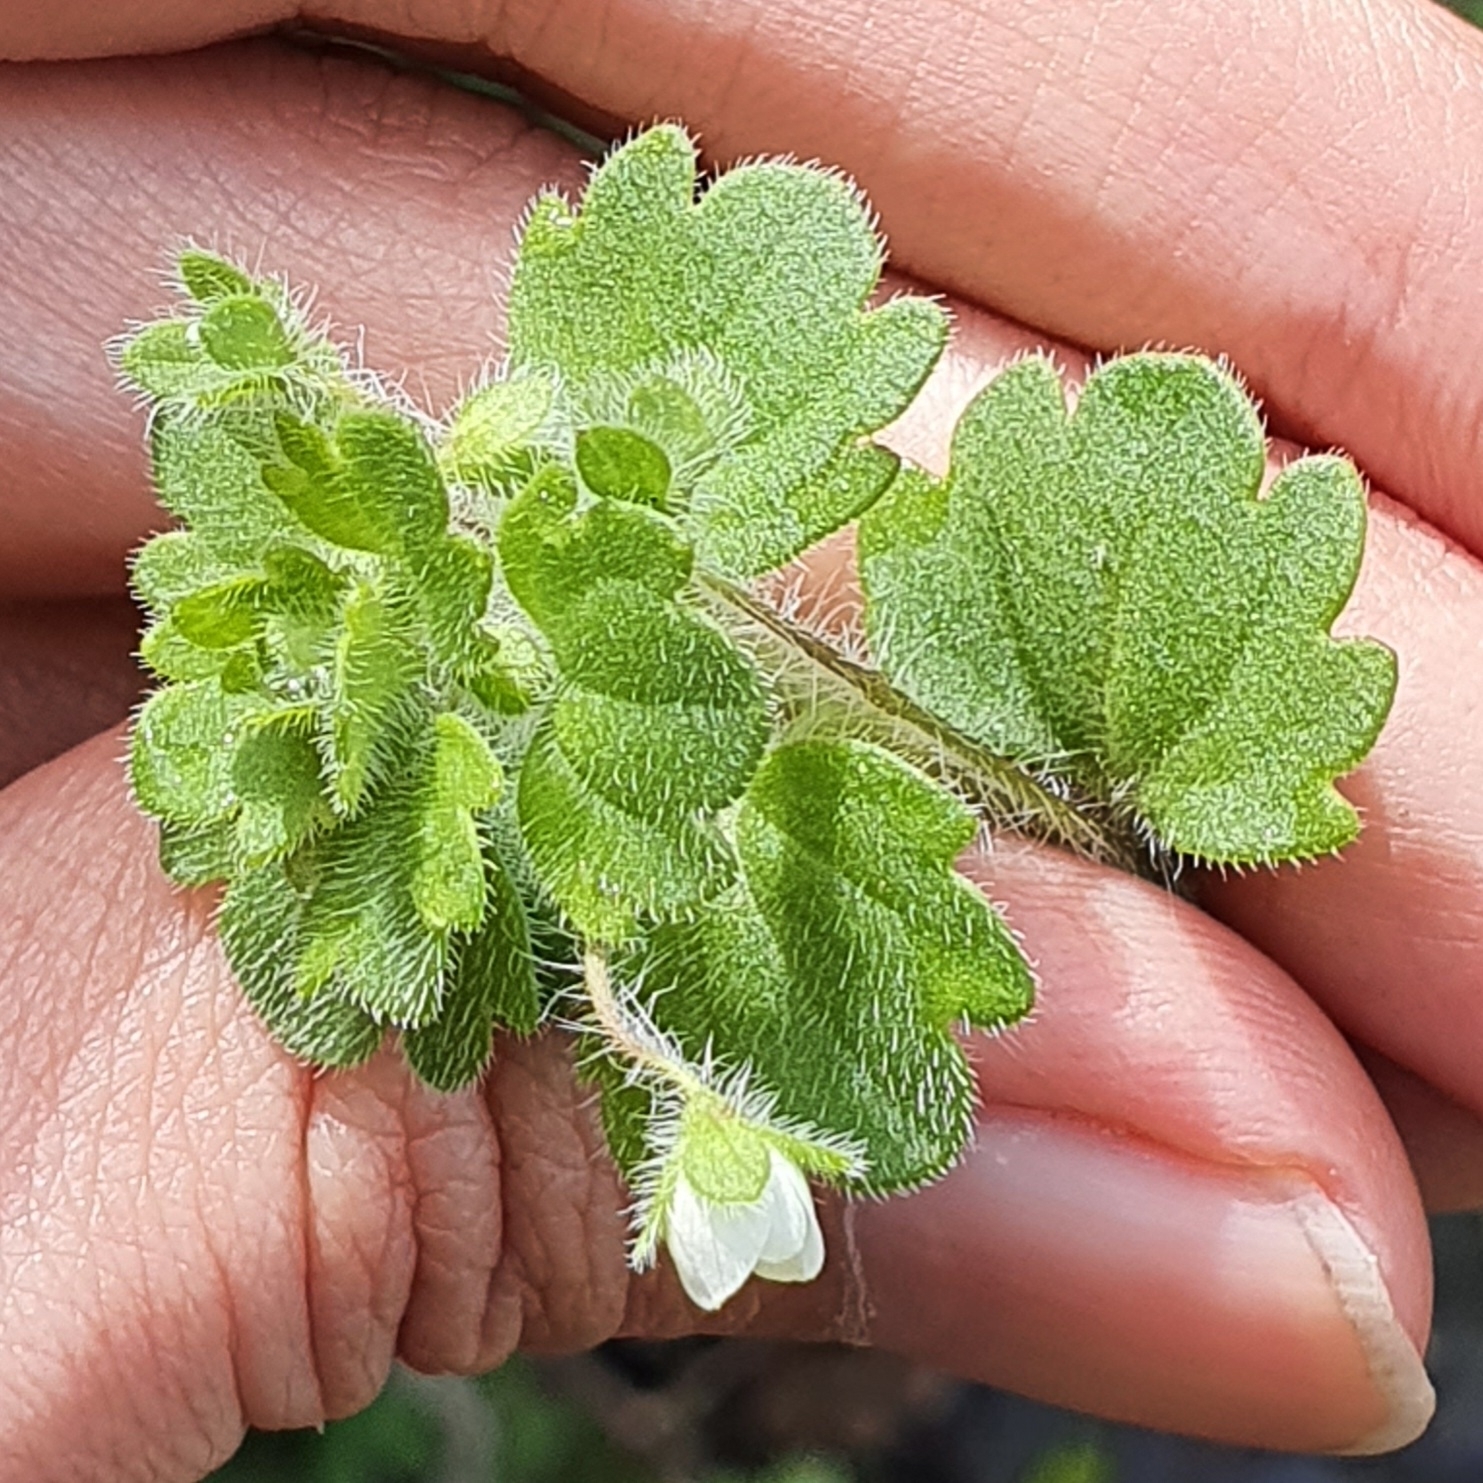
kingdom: Plantae
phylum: Tracheophyta
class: Magnoliopsida
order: Lamiales
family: Plantaginaceae
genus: Veronica
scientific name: Veronica cymbalaria
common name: Pale speedwell
